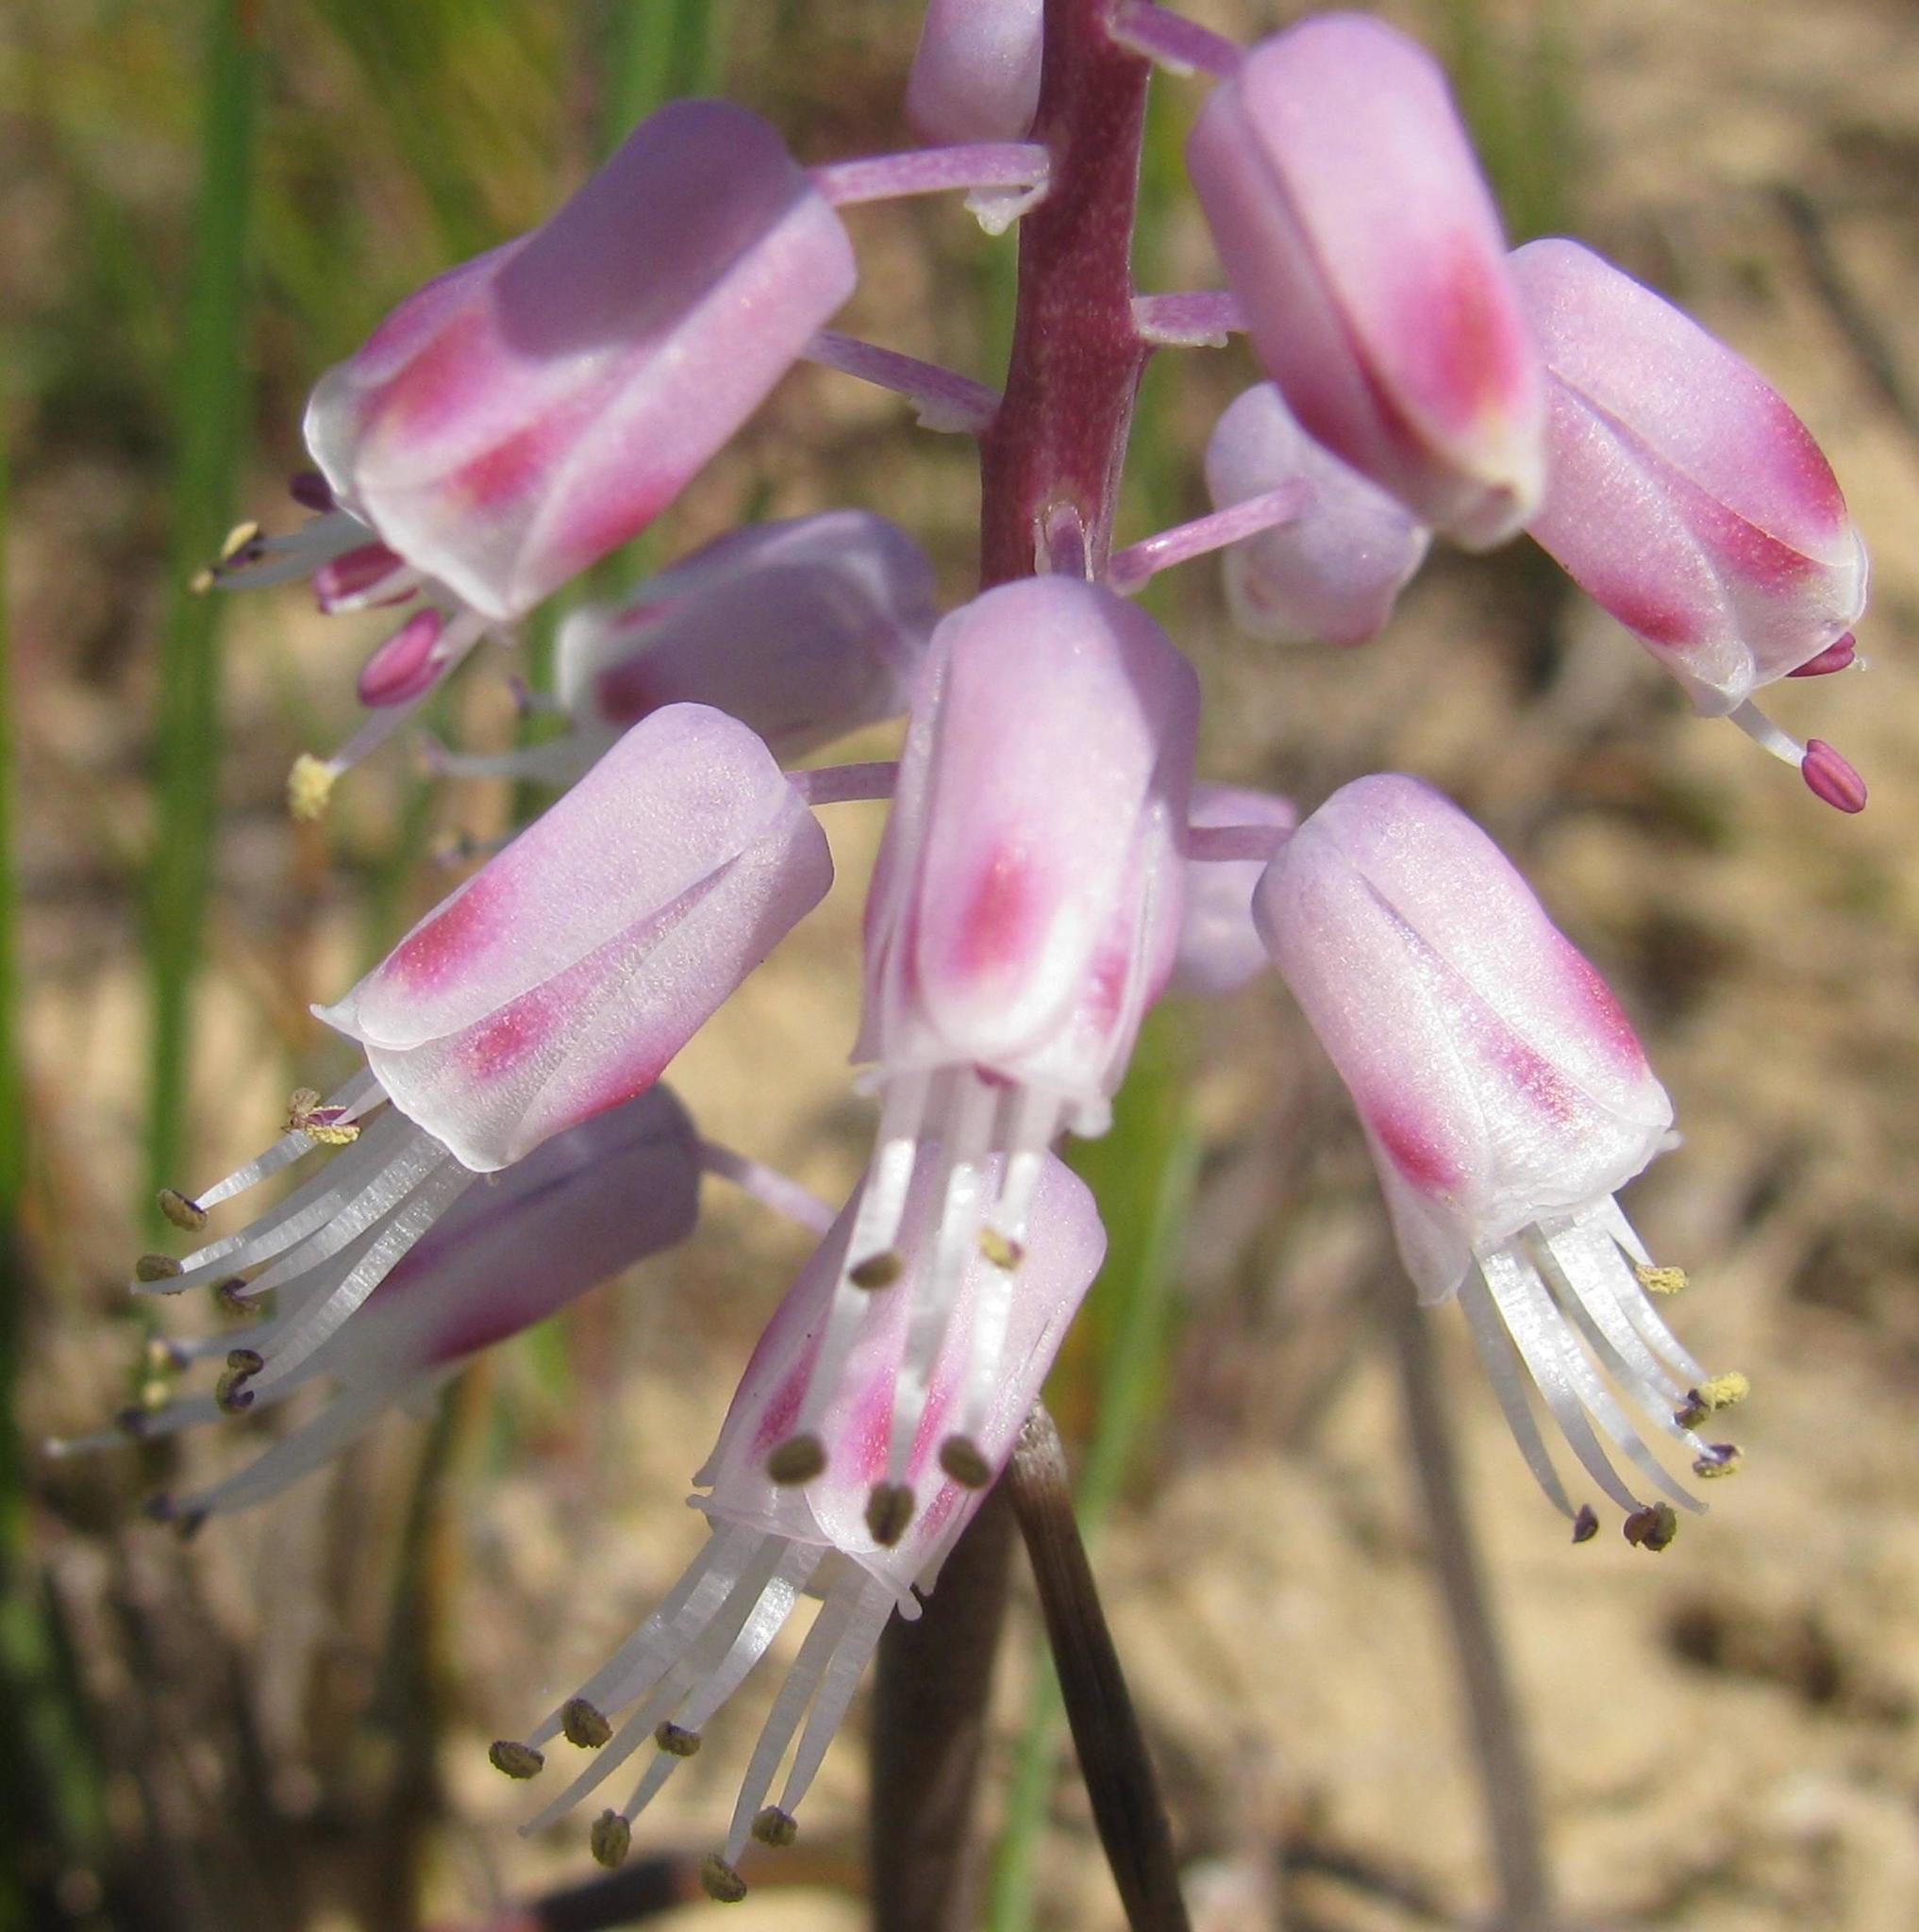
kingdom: Plantae
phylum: Tracheophyta
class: Liliopsida
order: Asparagales
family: Asparagaceae
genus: Lachenalia
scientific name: Lachenalia juncifolia
